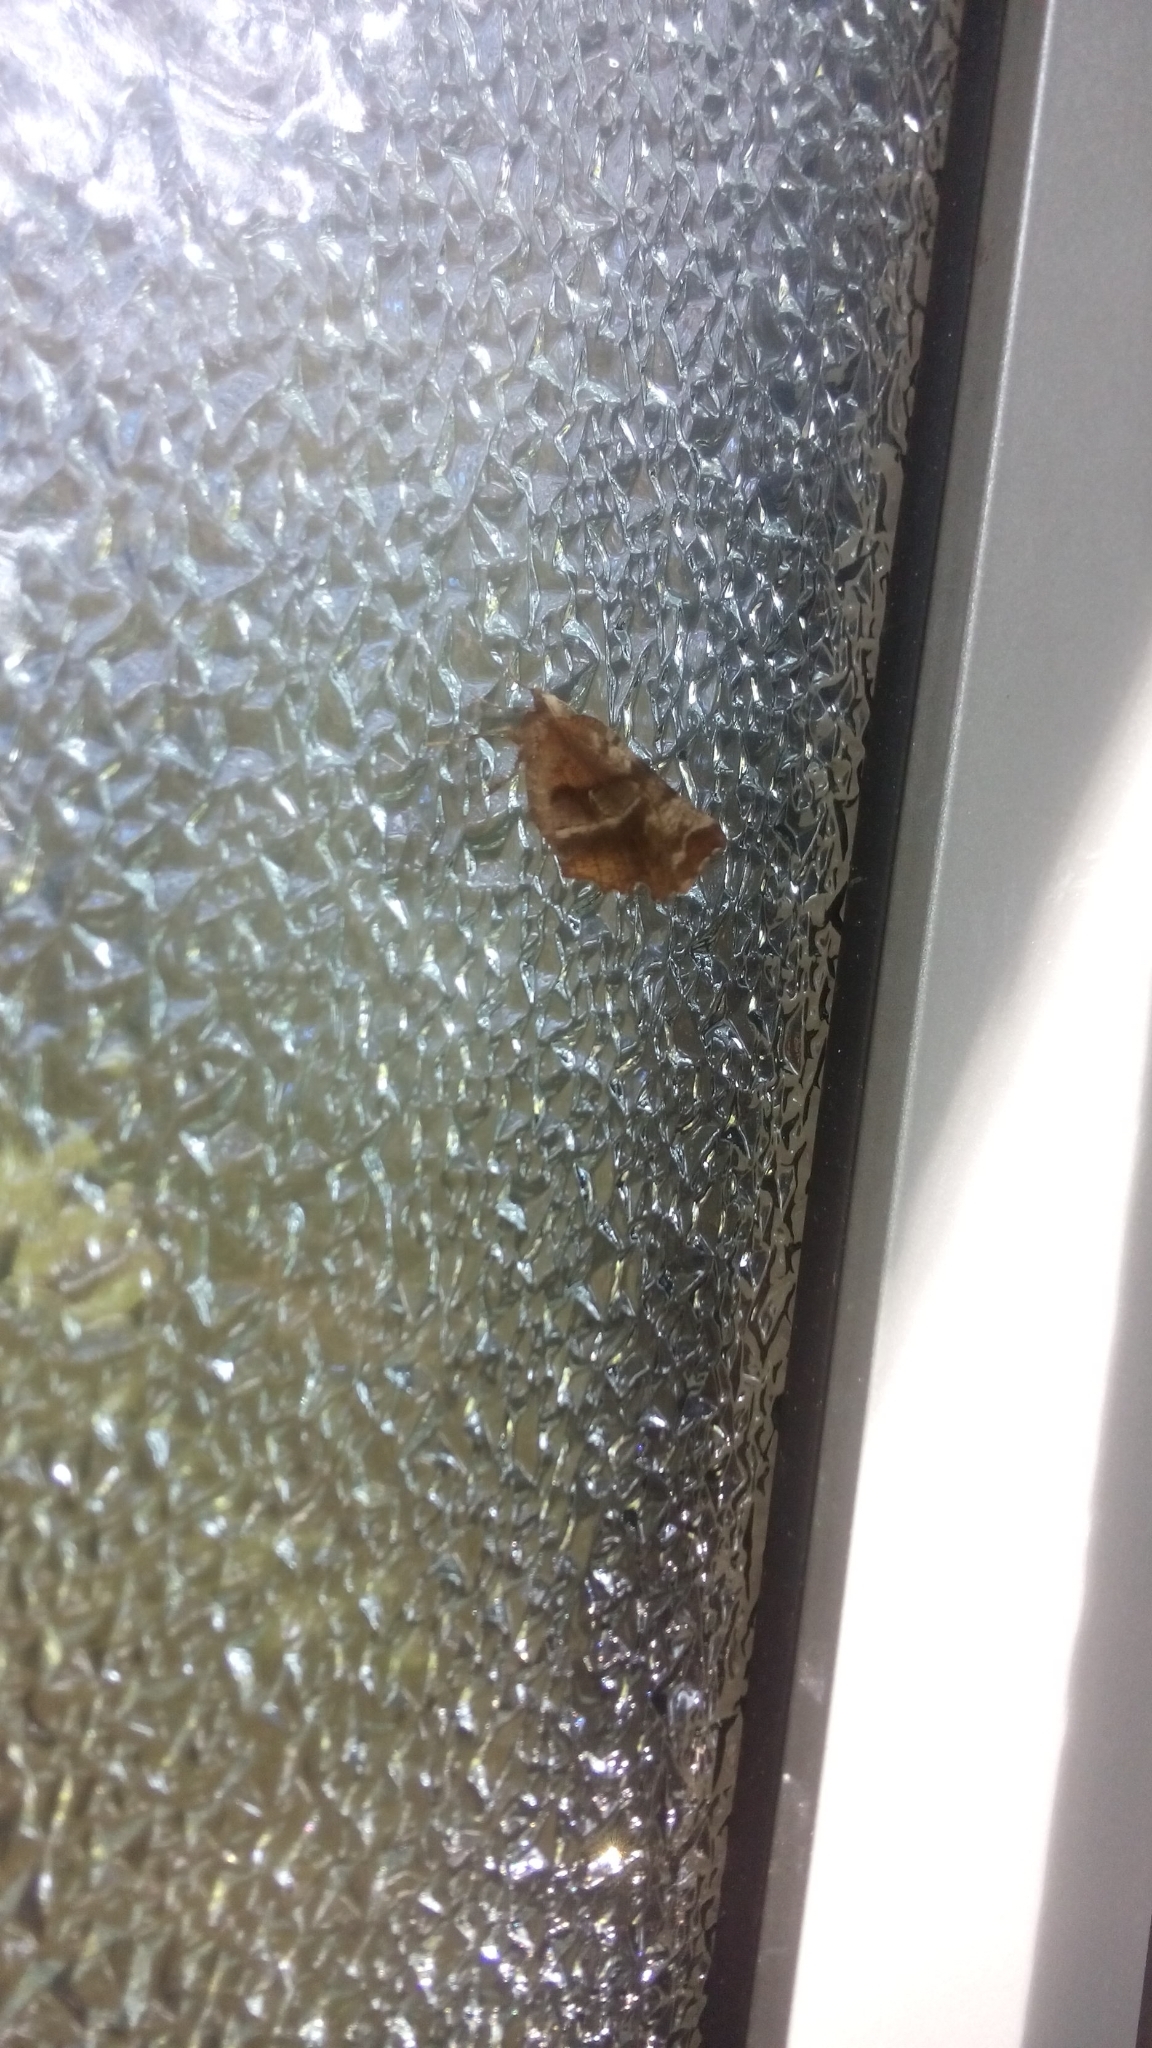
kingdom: Animalia
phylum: Arthropoda
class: Insecta
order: Lepidoptera
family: Geometridae
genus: Selenia
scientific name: Selenia dentaria
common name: Early thorn
